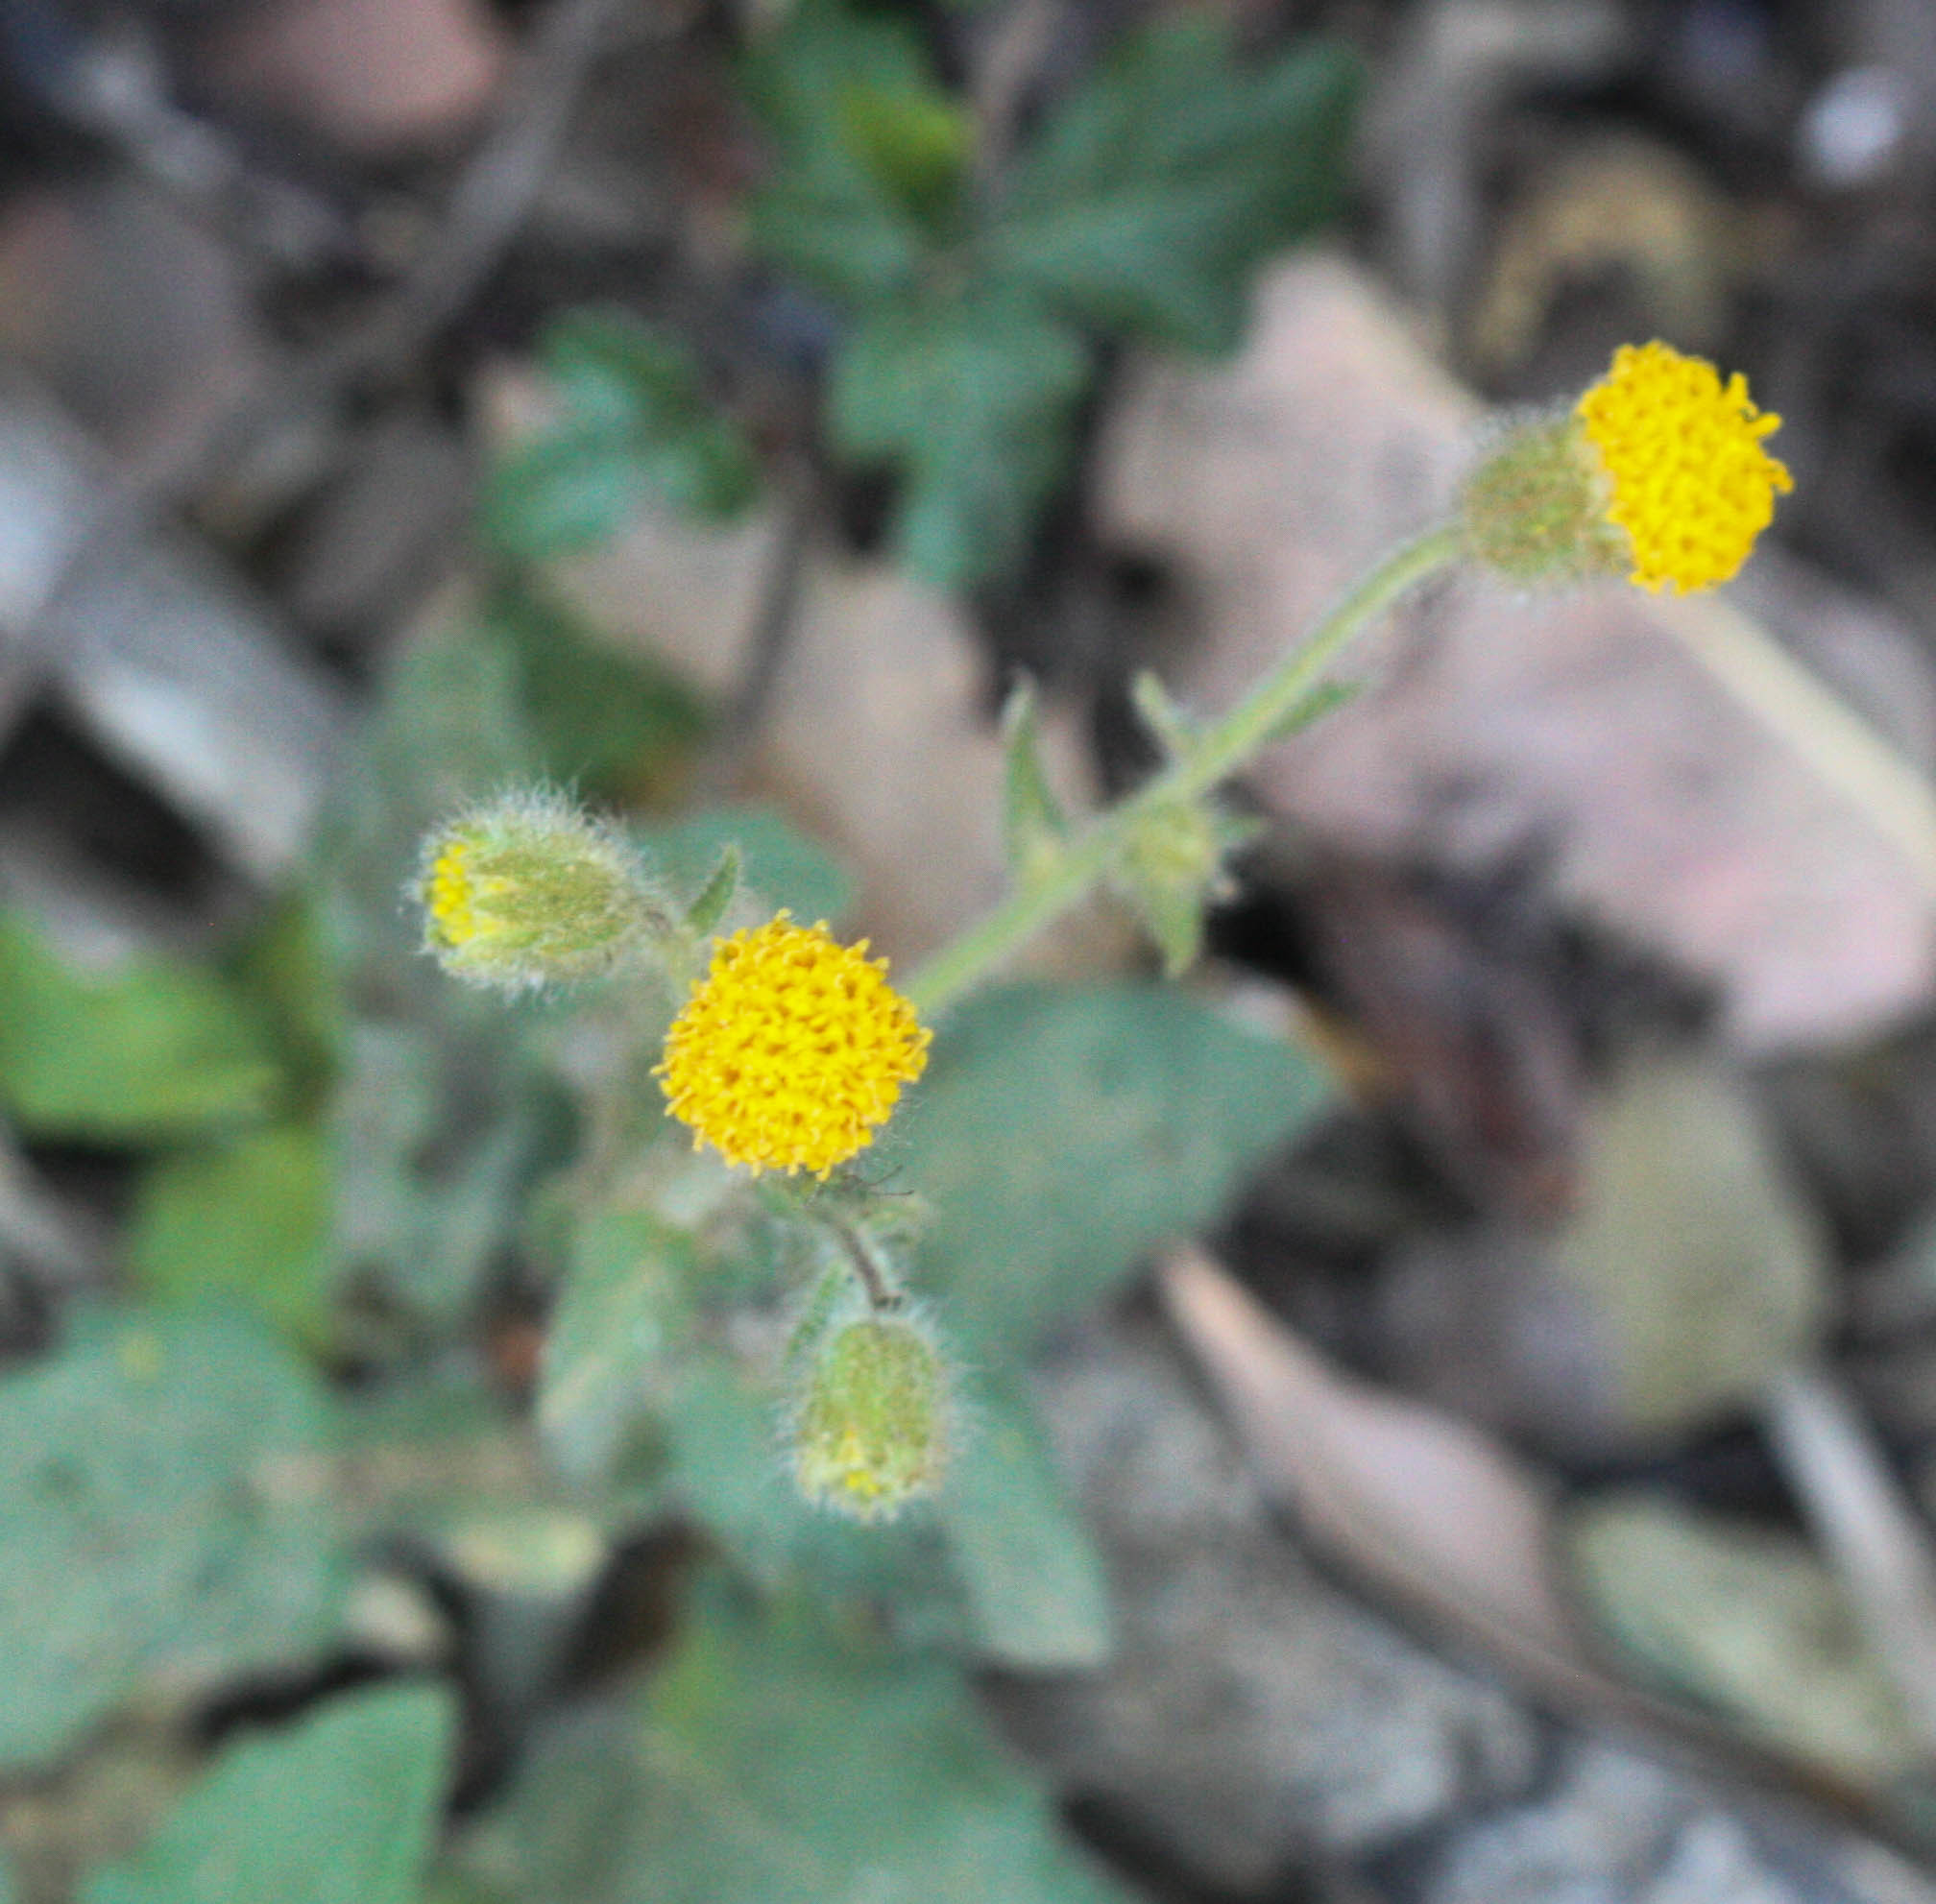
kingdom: Plantae
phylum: Tracheophyta
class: Magnoliopsida
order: Asterales
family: Asteraceae
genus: Arnica
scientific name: Arnica discoidea
